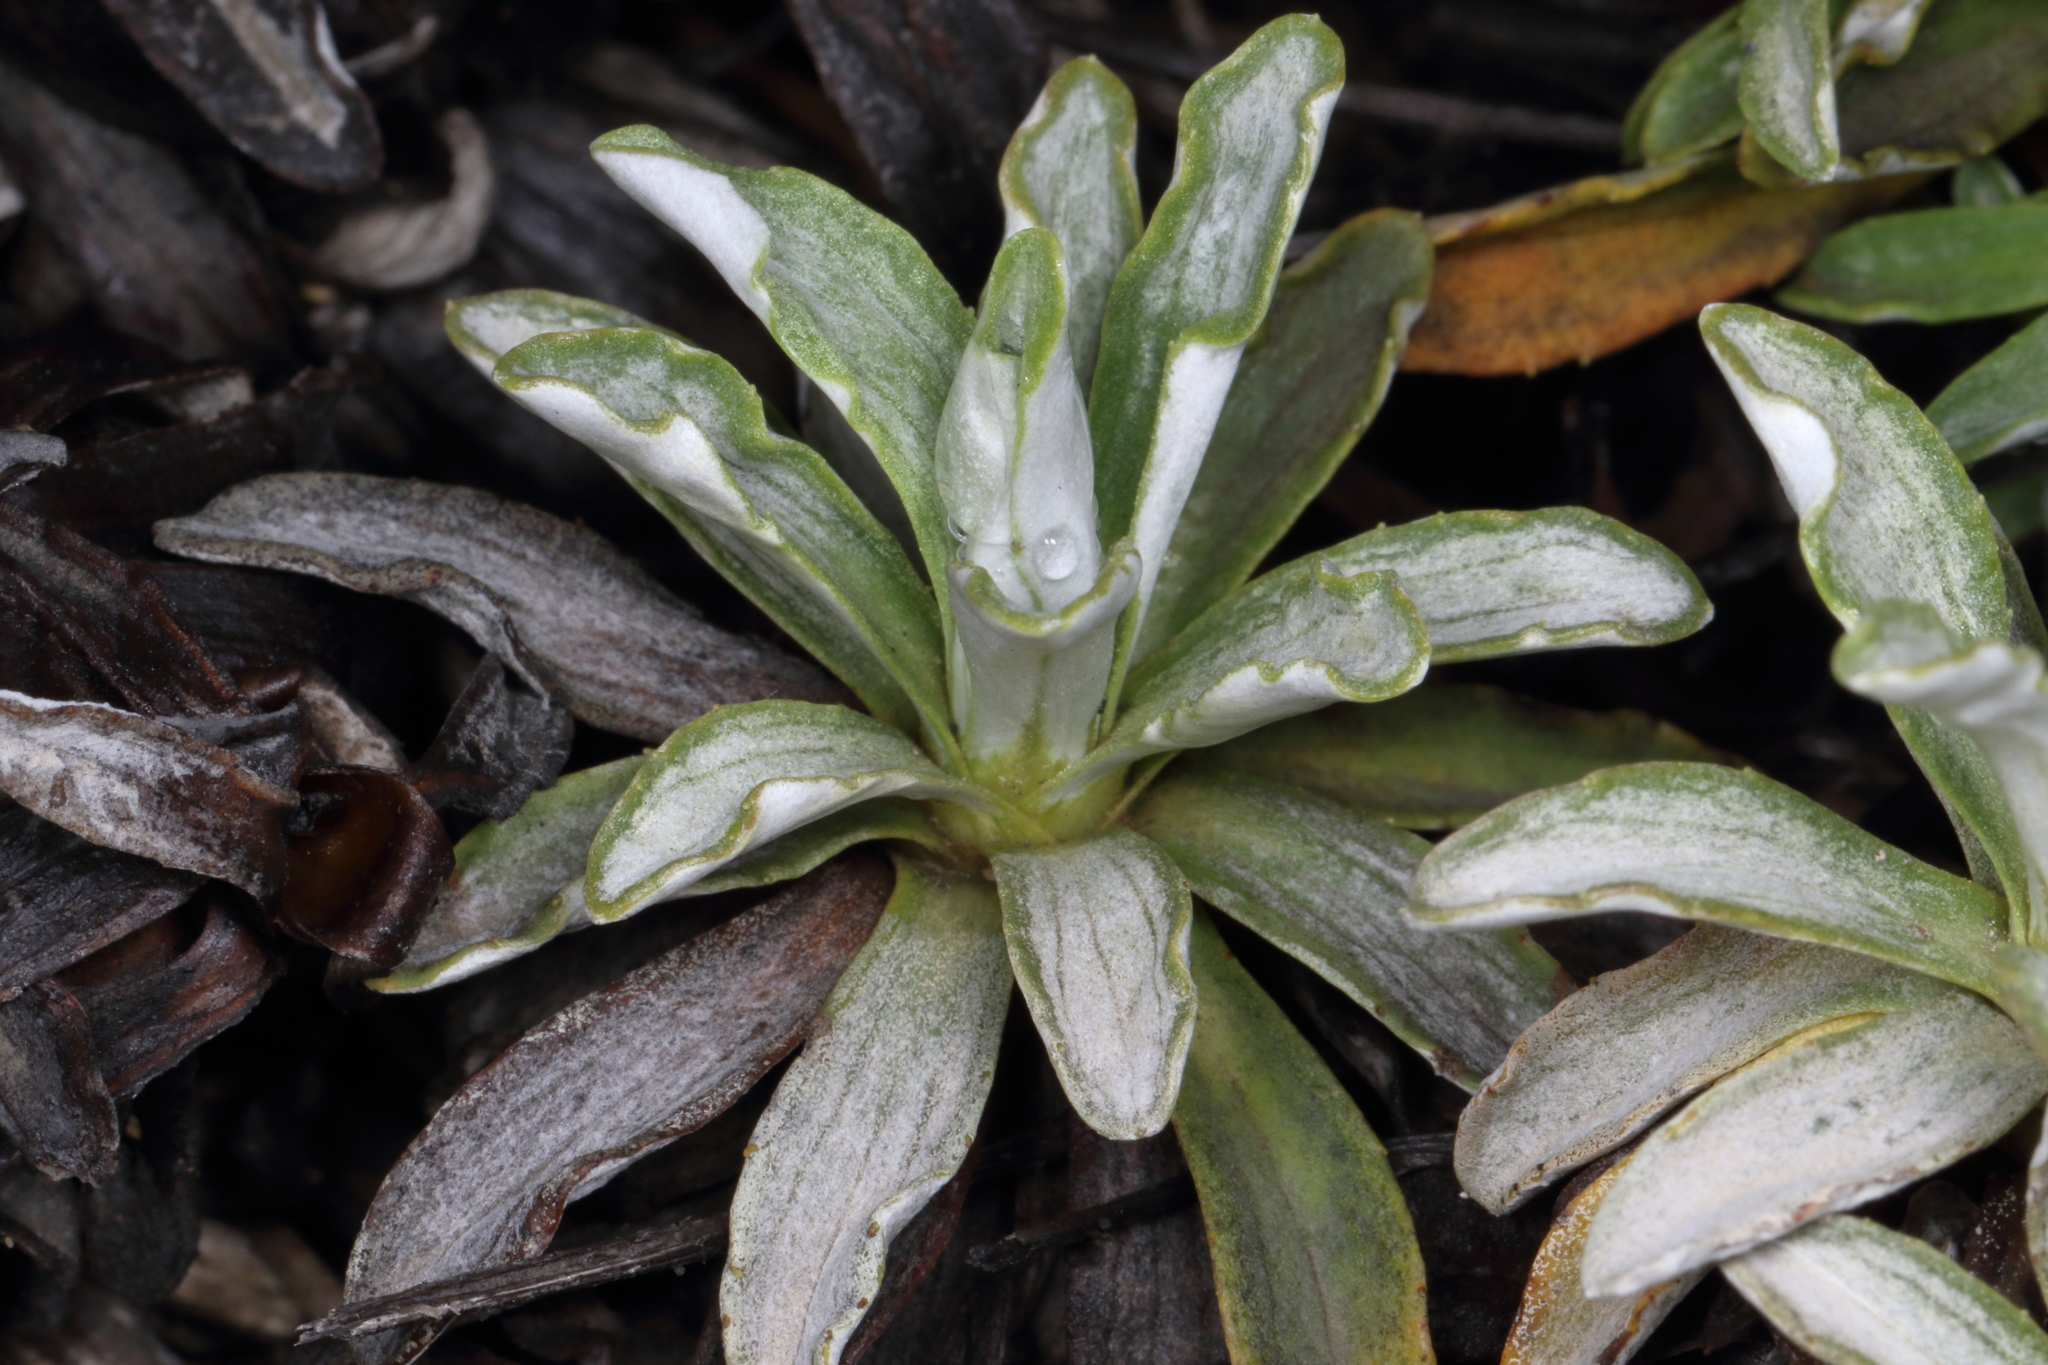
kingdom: Plantae
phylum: Tracheophyta
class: Magnoliopsida
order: Asterales
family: Asteraceae
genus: Celmisia
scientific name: Celmisia angustifolia
